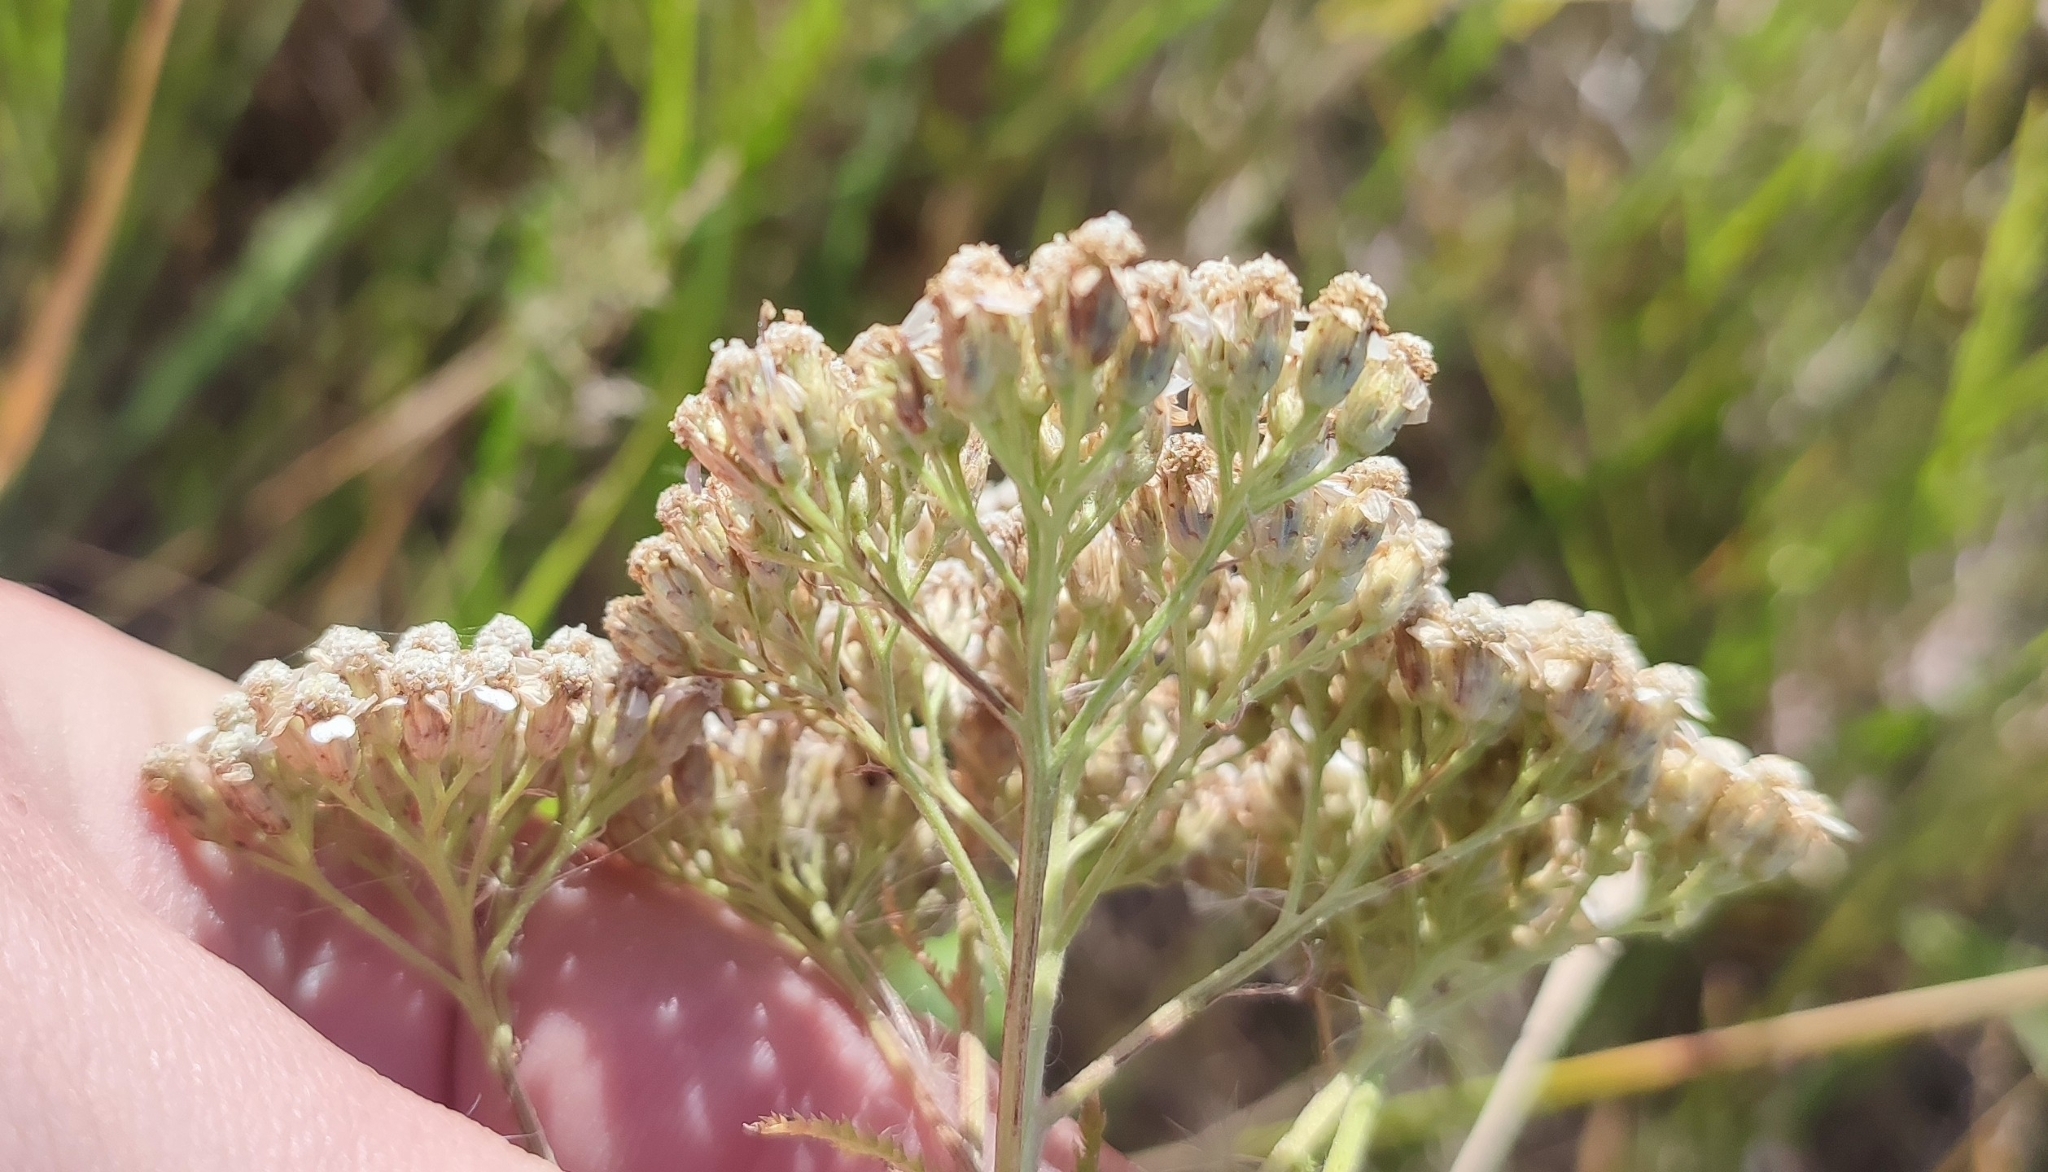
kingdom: Plantae
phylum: Tracheophyta
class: Magnoliopsida
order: Asterales
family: Asteraceae
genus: Achillea
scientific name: Achillea millefolium
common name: Yarrow
